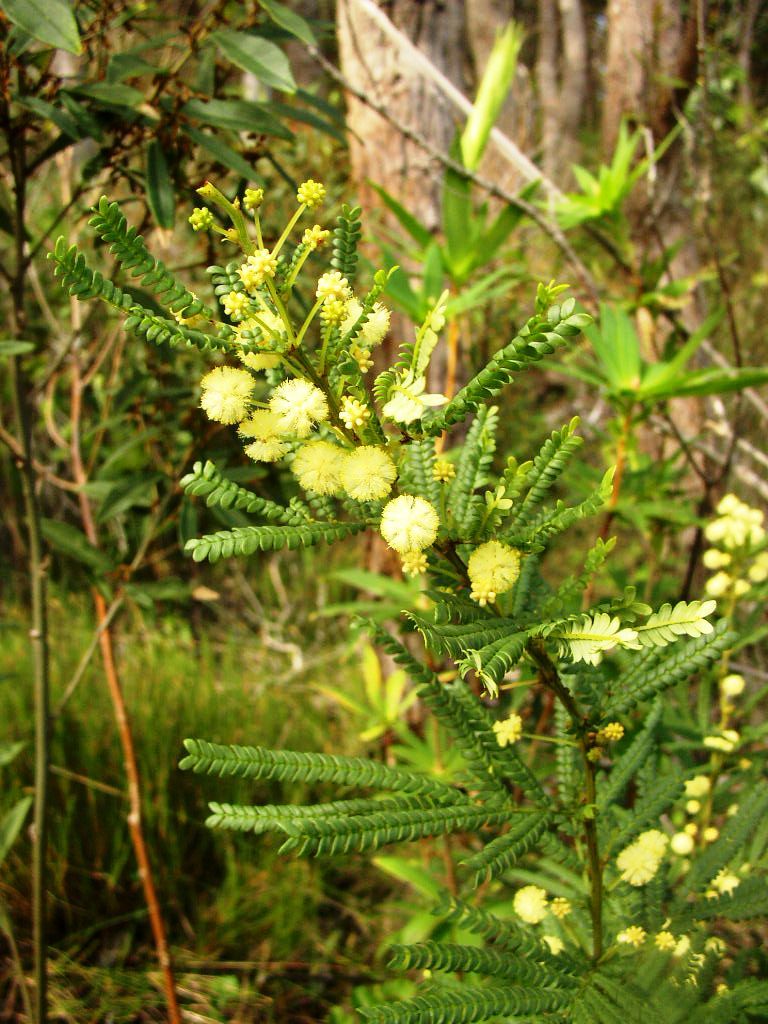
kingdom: Plantae
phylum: Tracheophyta
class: Magnoliopsida
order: Fabales
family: Fabaceae
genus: Acacia
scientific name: Acacia pentadenia
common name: Karri wattle
